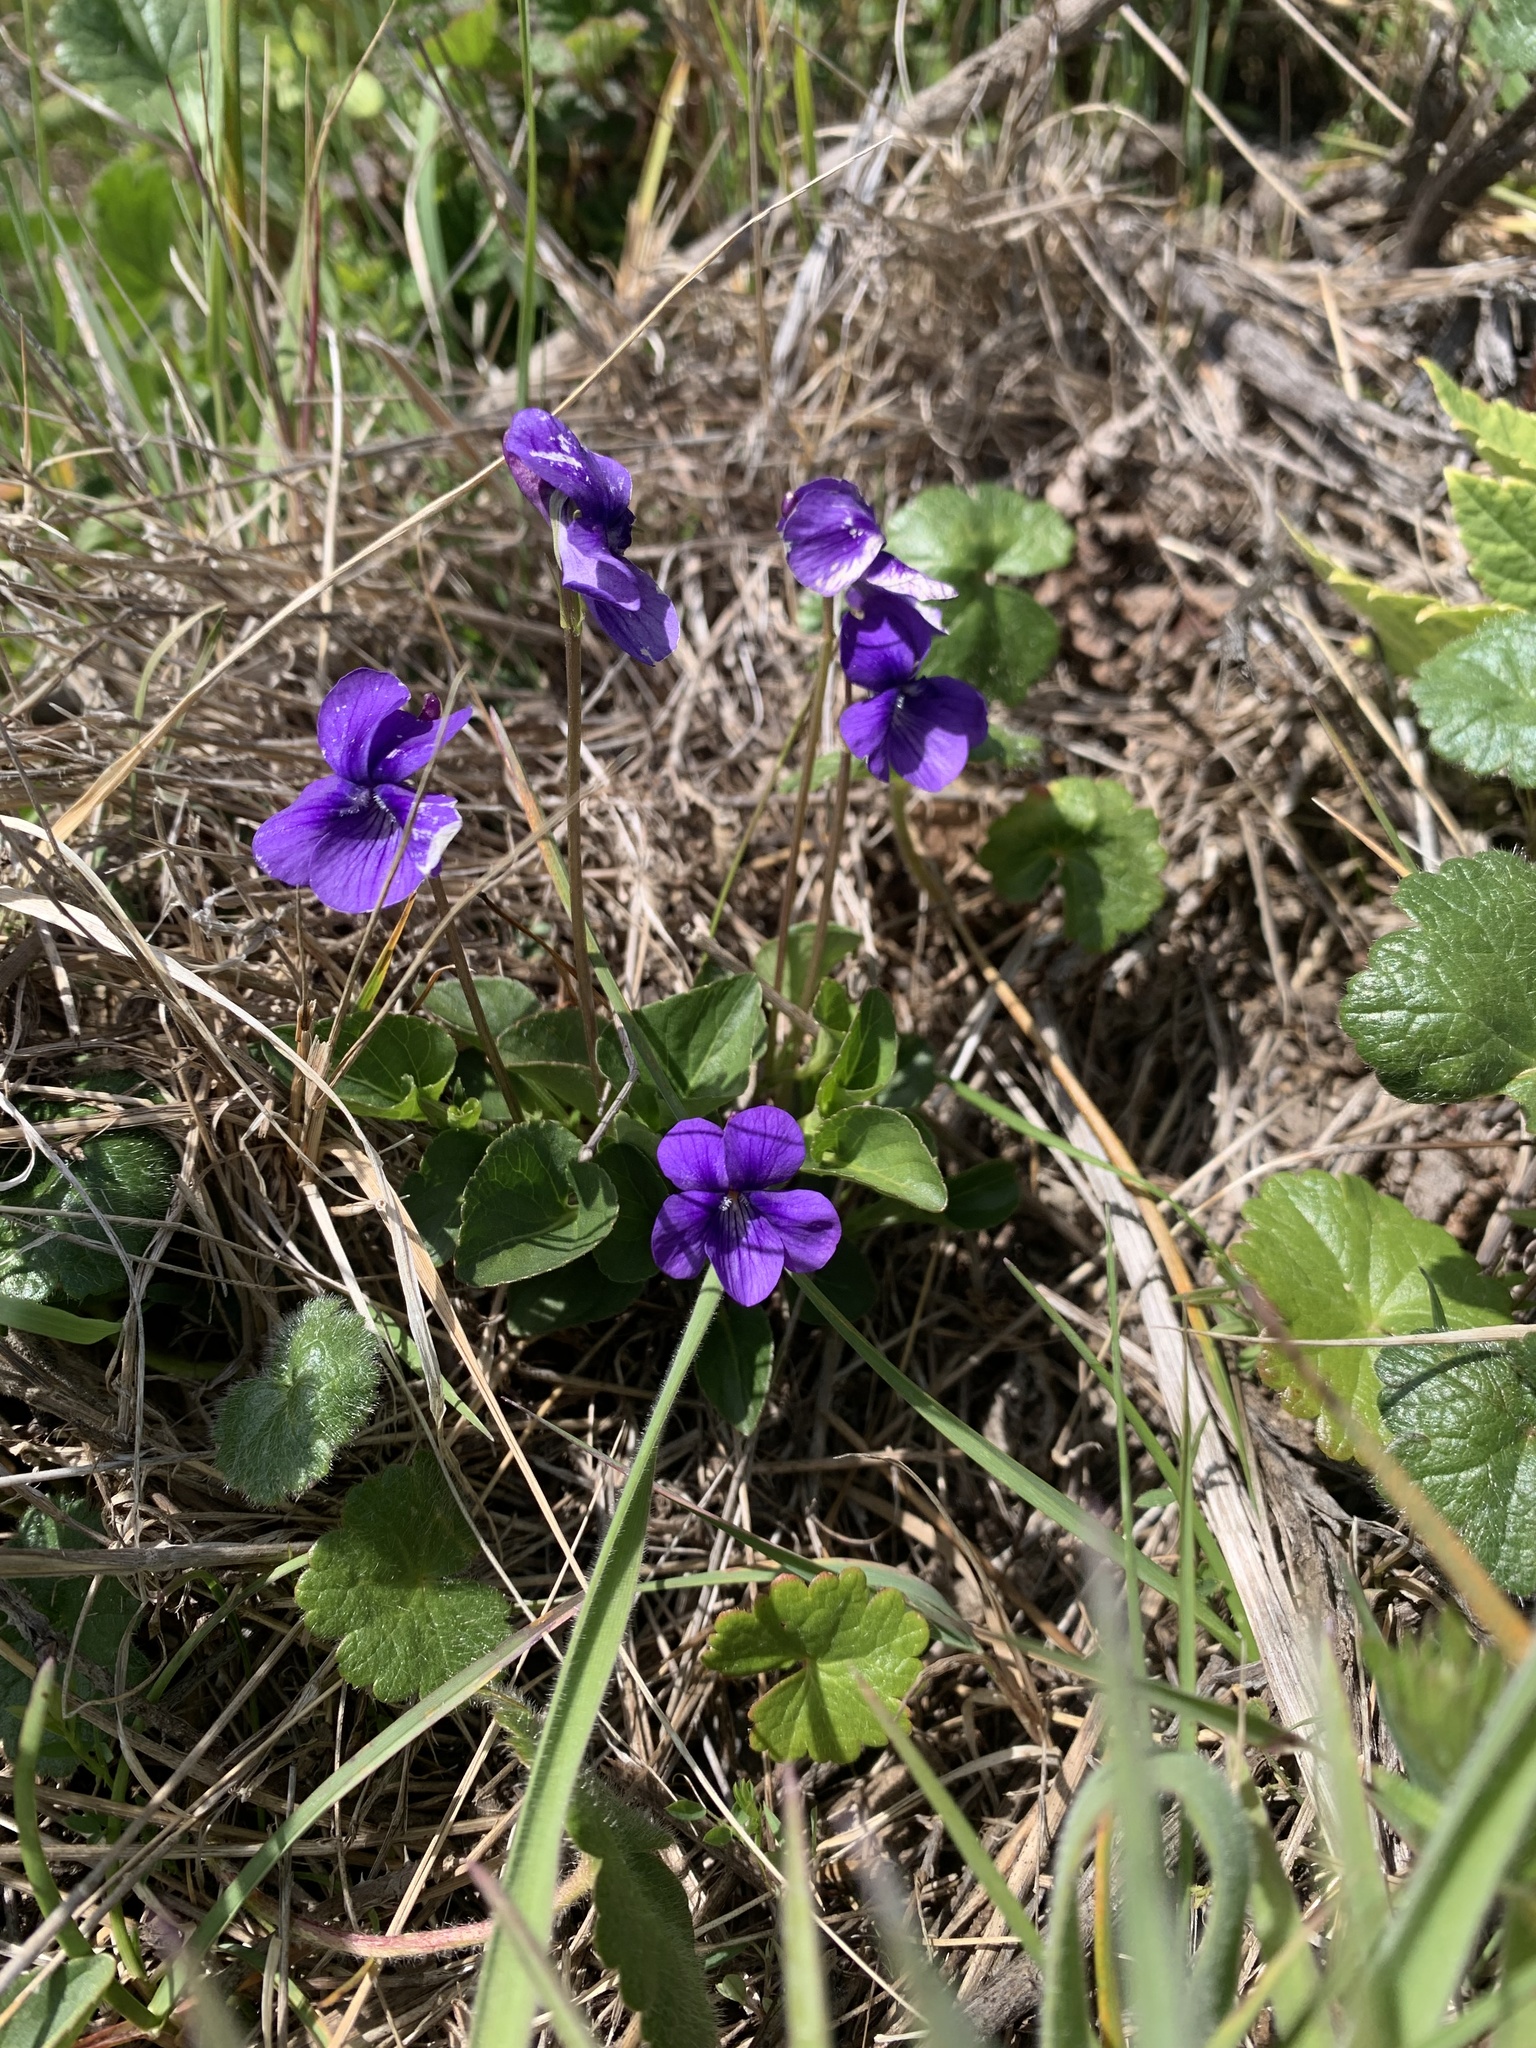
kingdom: Plantae
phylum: Tracheophyta
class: Magnoliopsida
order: Malpighiales
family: Violaceae
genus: Viola
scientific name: Viola adunca
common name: Sand violet
